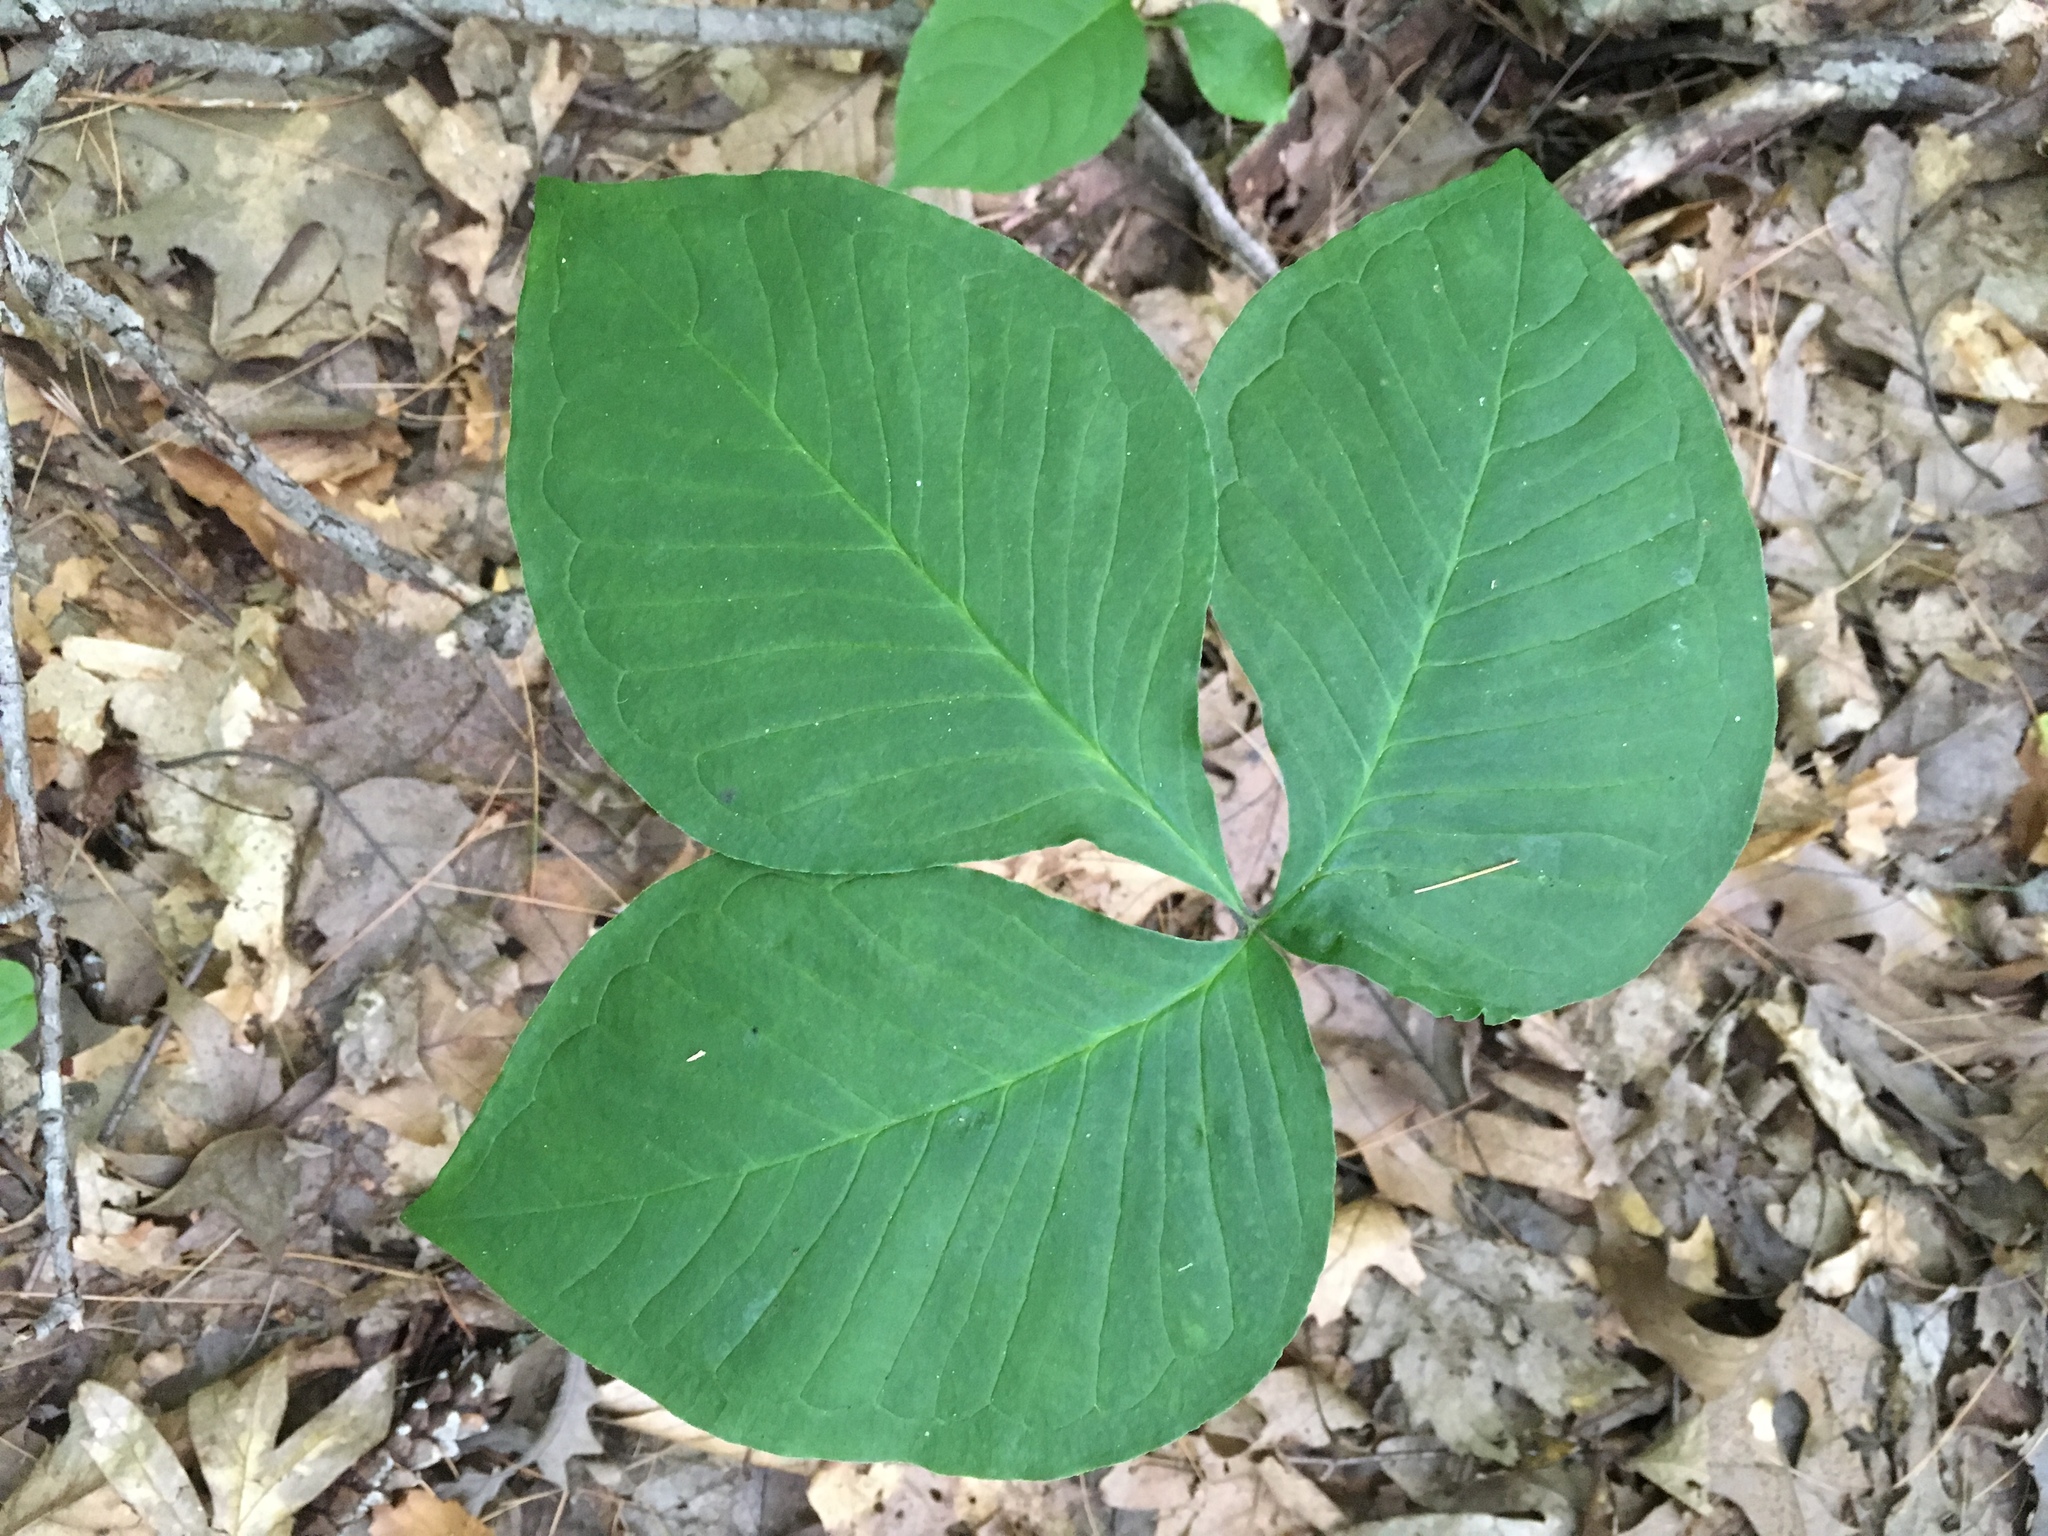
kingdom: Plantae
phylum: Tracheophyta
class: Liliopsida
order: Alismatales
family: Araceae
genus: Arisaema
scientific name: Arisaema triphyllum
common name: Jack-in-the-pulpit
